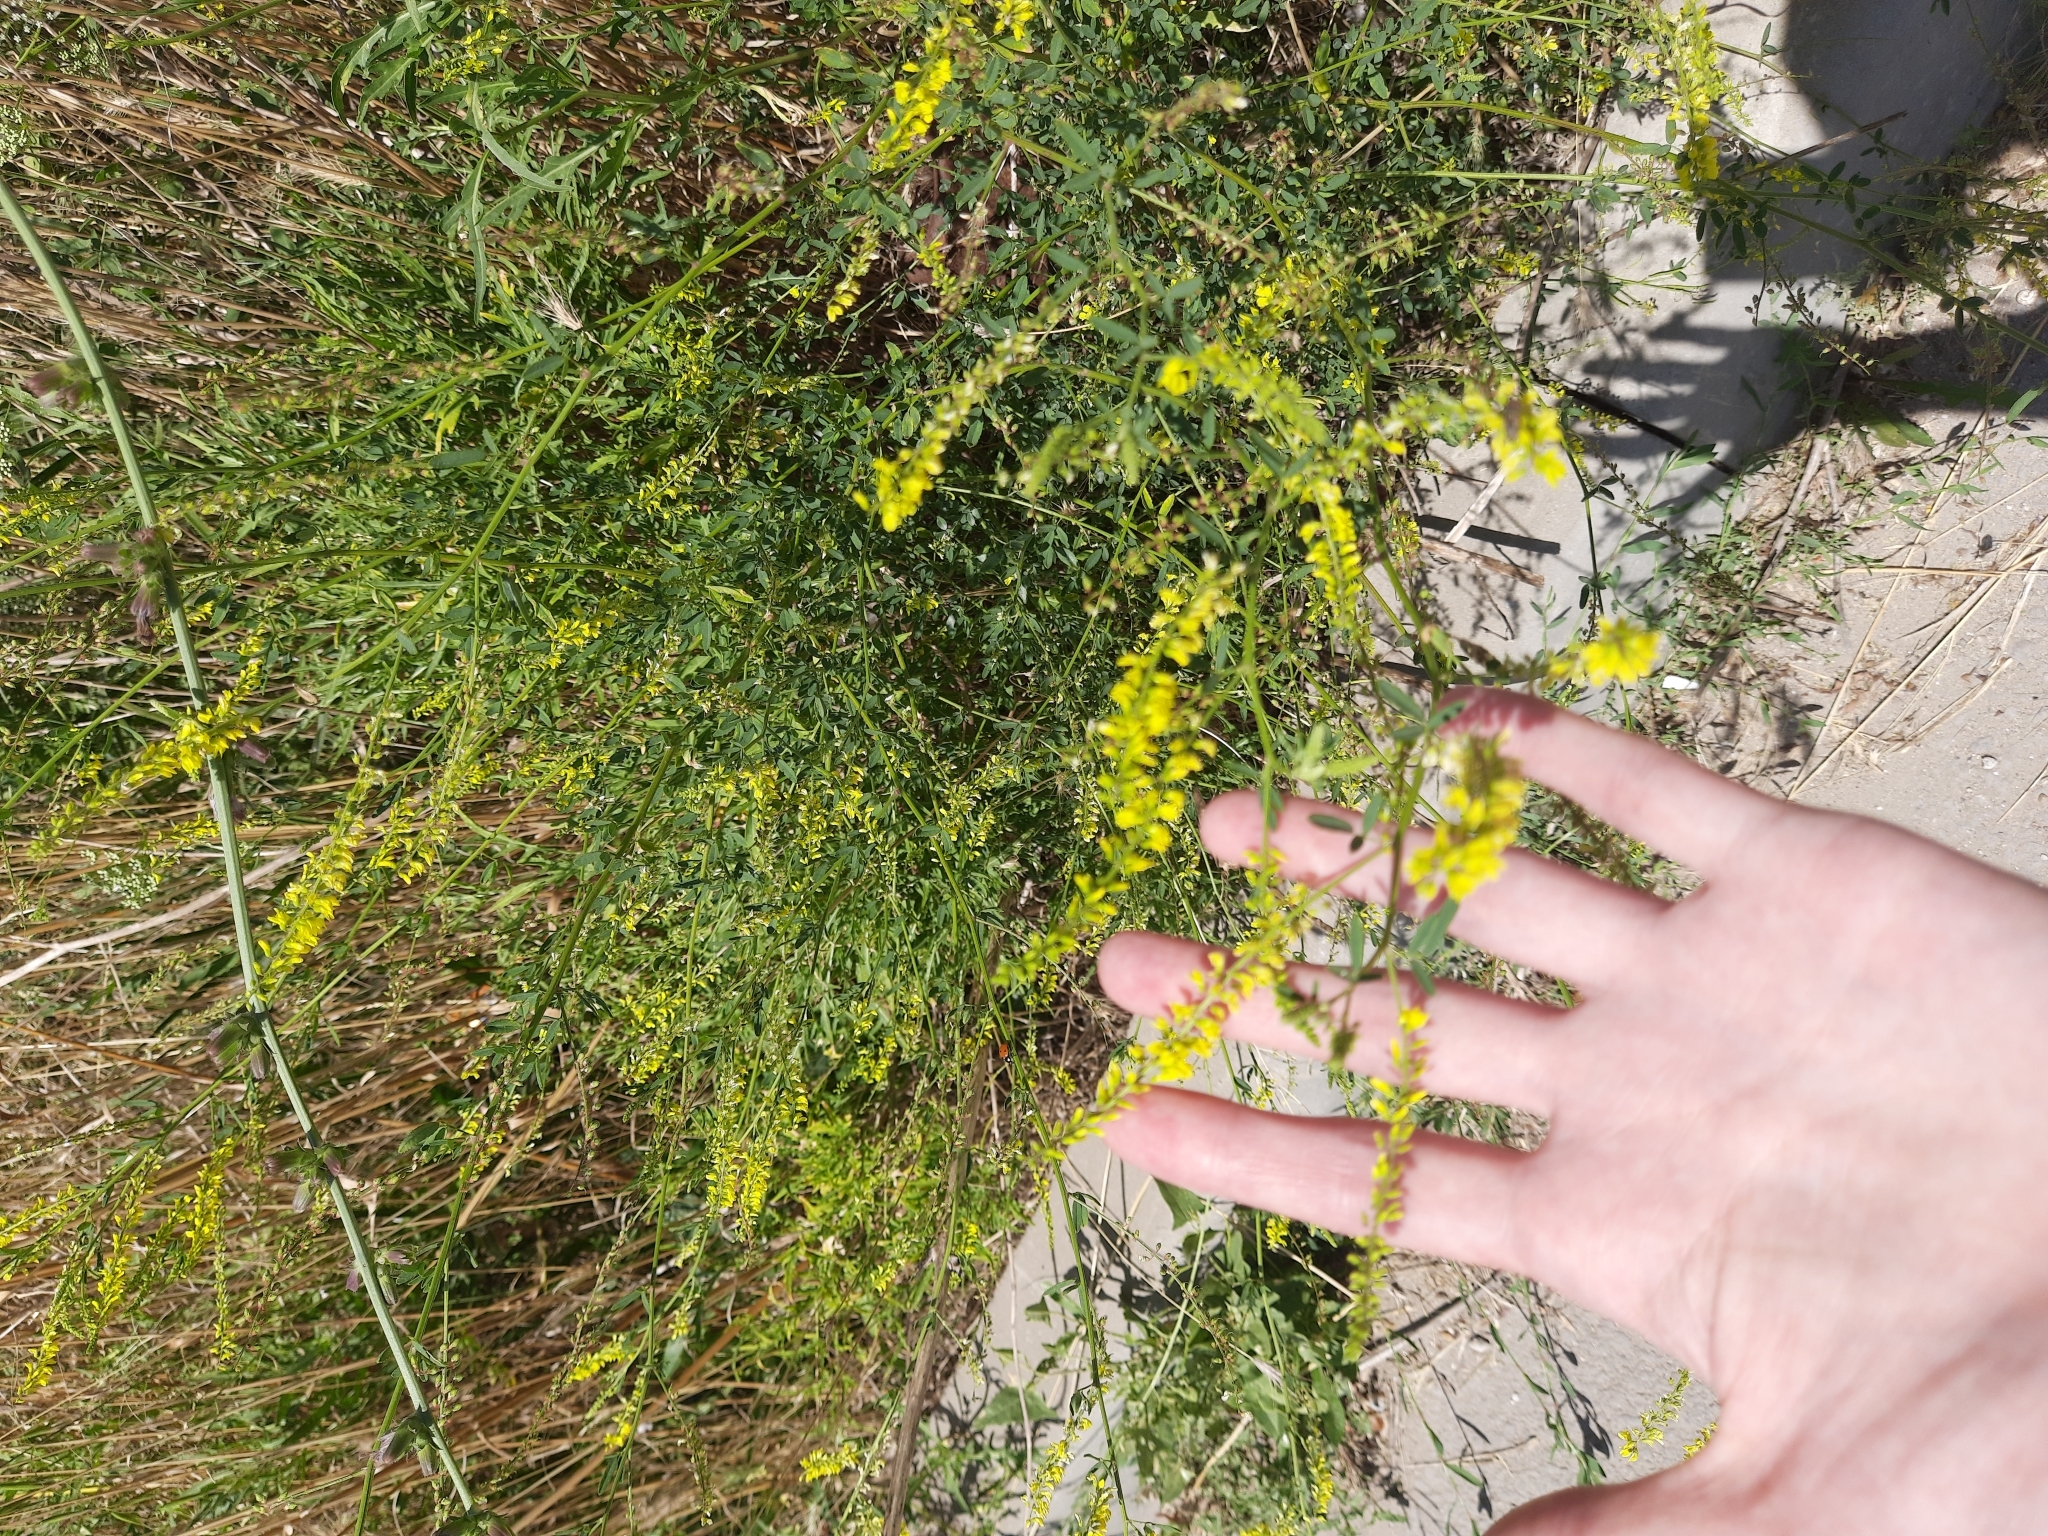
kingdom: Plantae
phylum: Tracheophyta
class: Magnoliopsida
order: Fabales
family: Fabaceae
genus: Melilotus
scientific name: Melilotus officinalis
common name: Sweetclover
